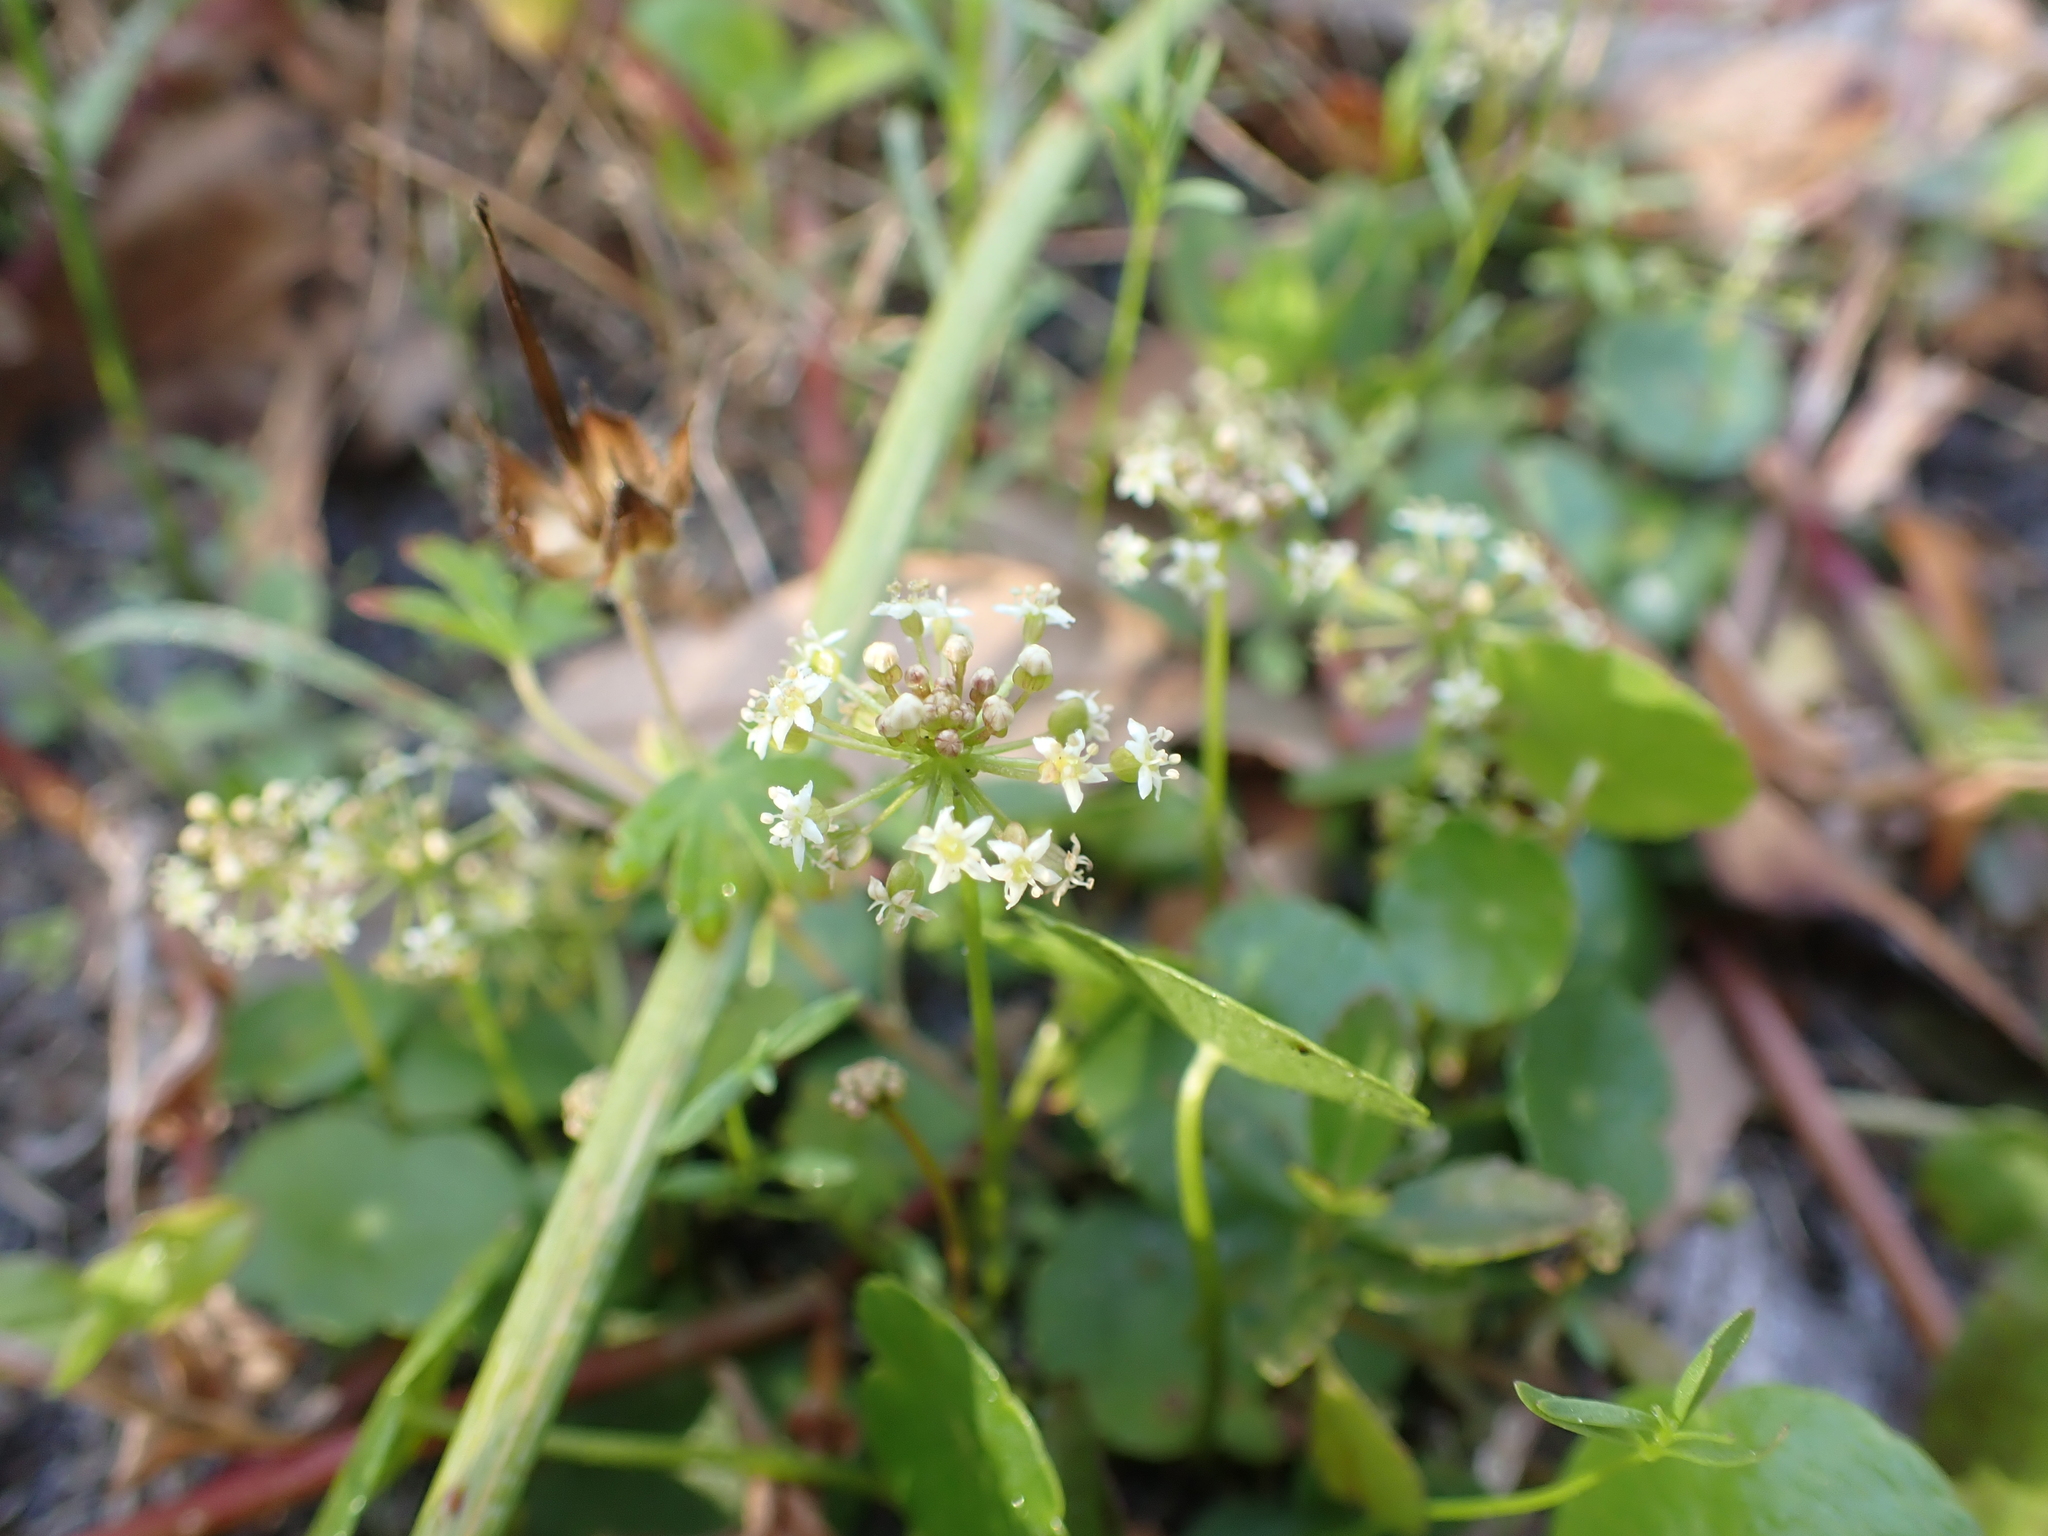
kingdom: Plantae
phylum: Tracheophyta
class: Magnoliopsida
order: Apiales
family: Araliaceae
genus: Hydrocotyle
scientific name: Hydrocotyle umbellata
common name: Water pennywort
